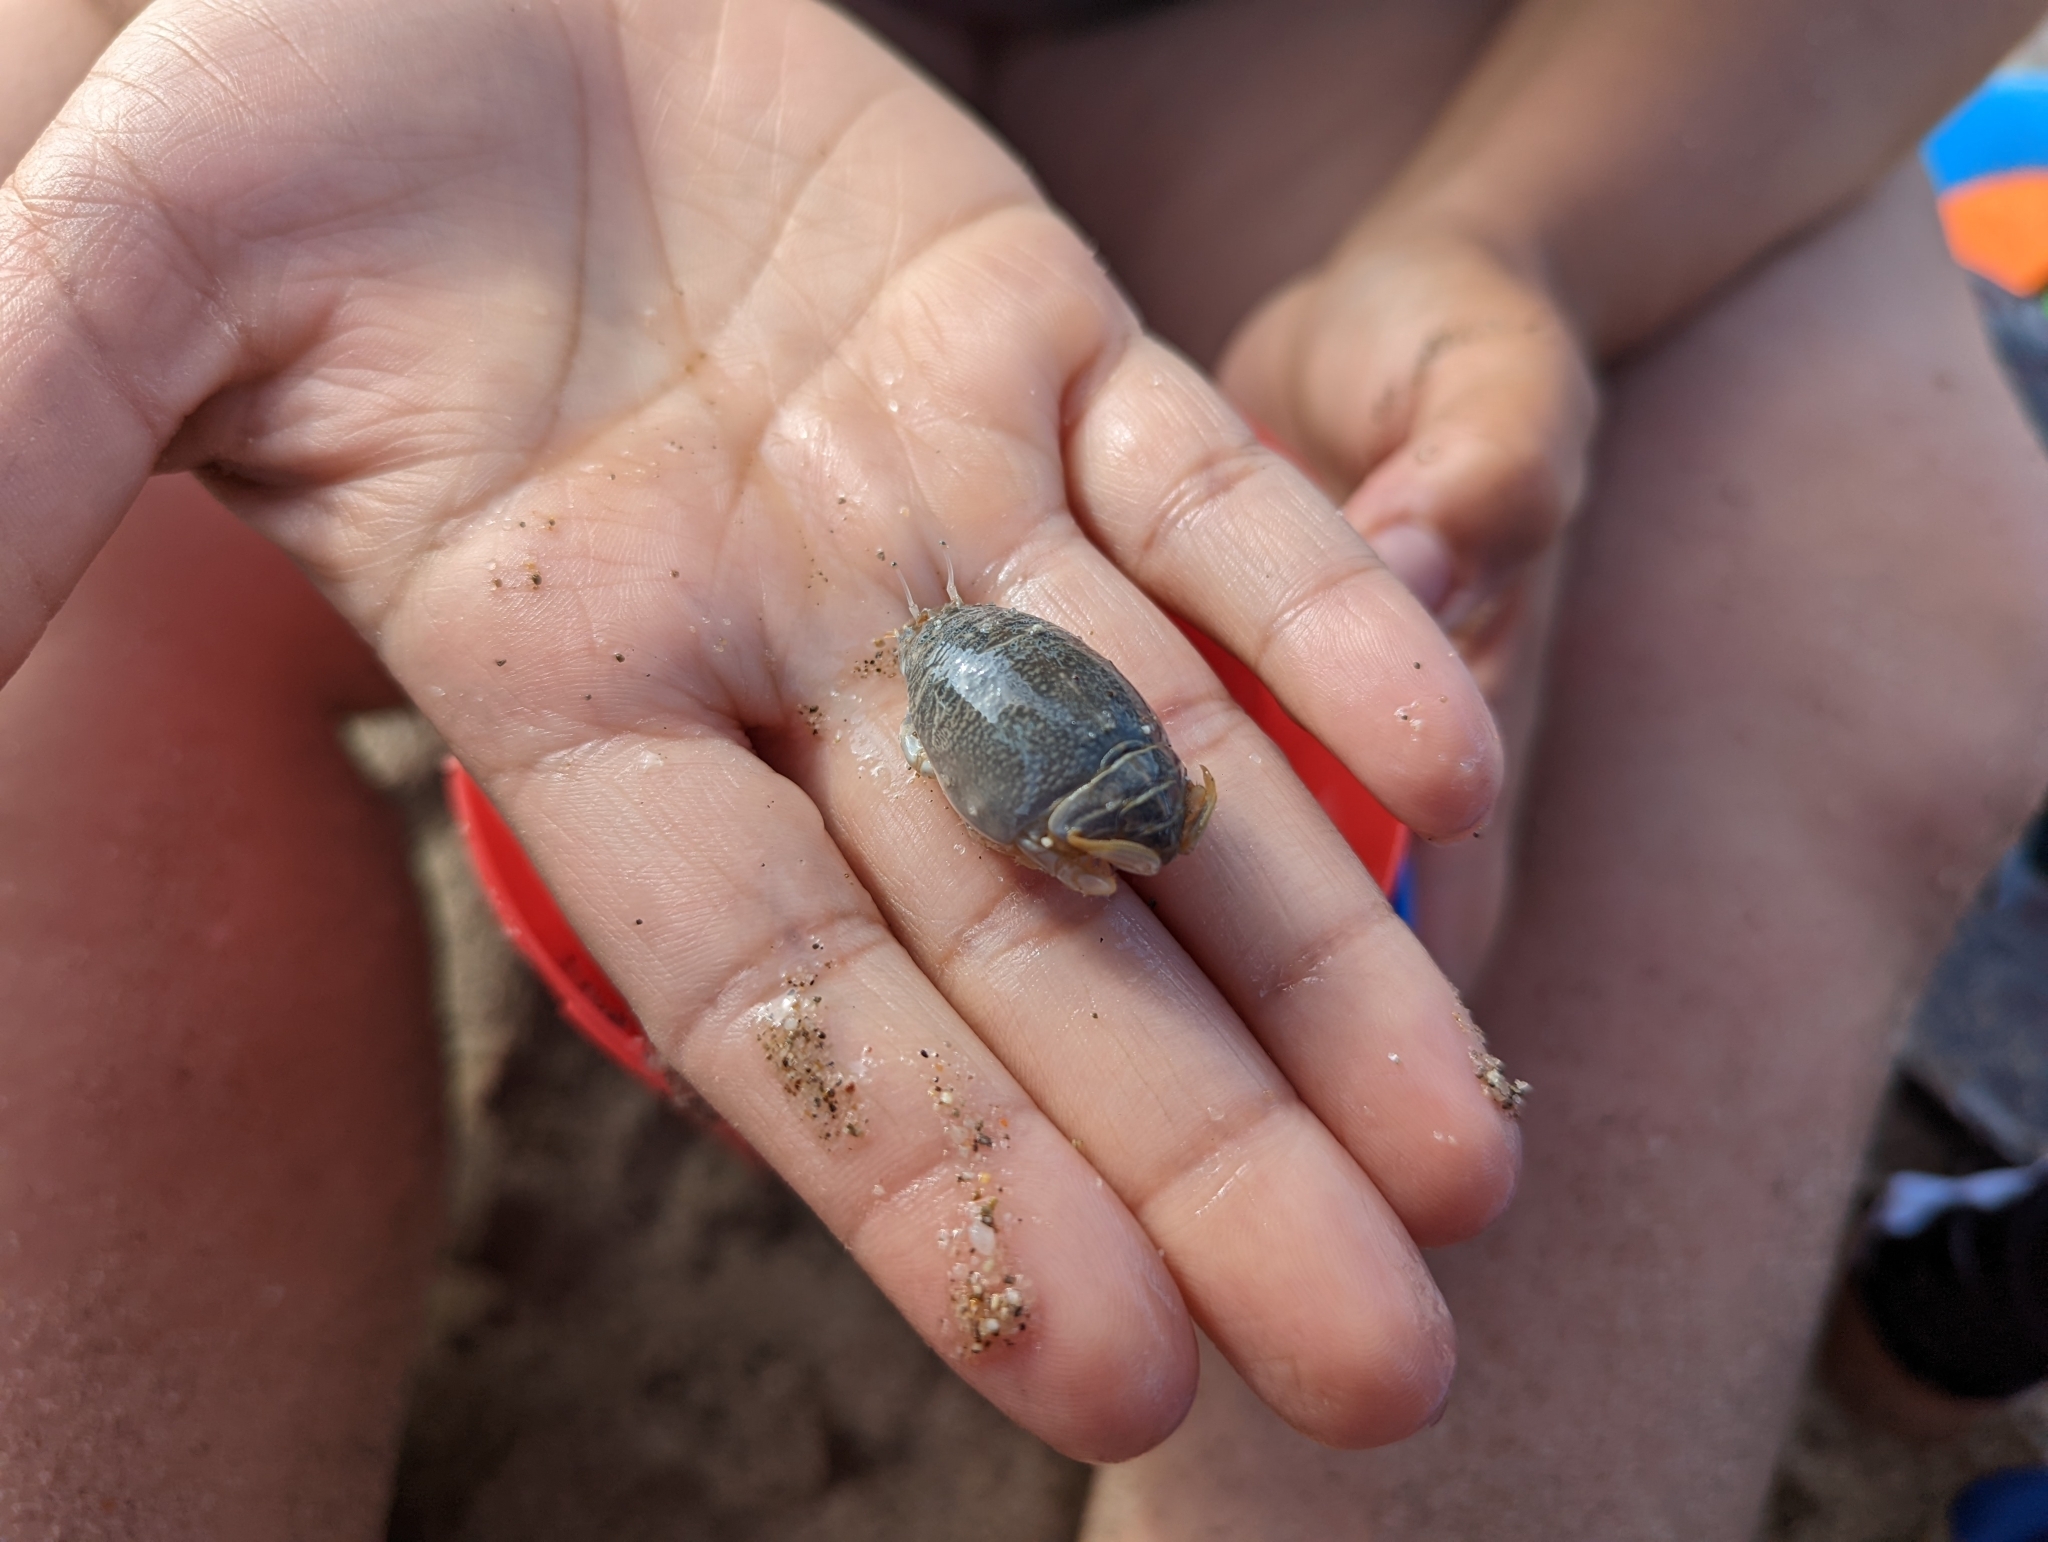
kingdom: Animalia
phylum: Arthropoda
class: Malacostraca
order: Decapoda
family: Hippidae
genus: Emerita
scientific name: Emerita analoga
